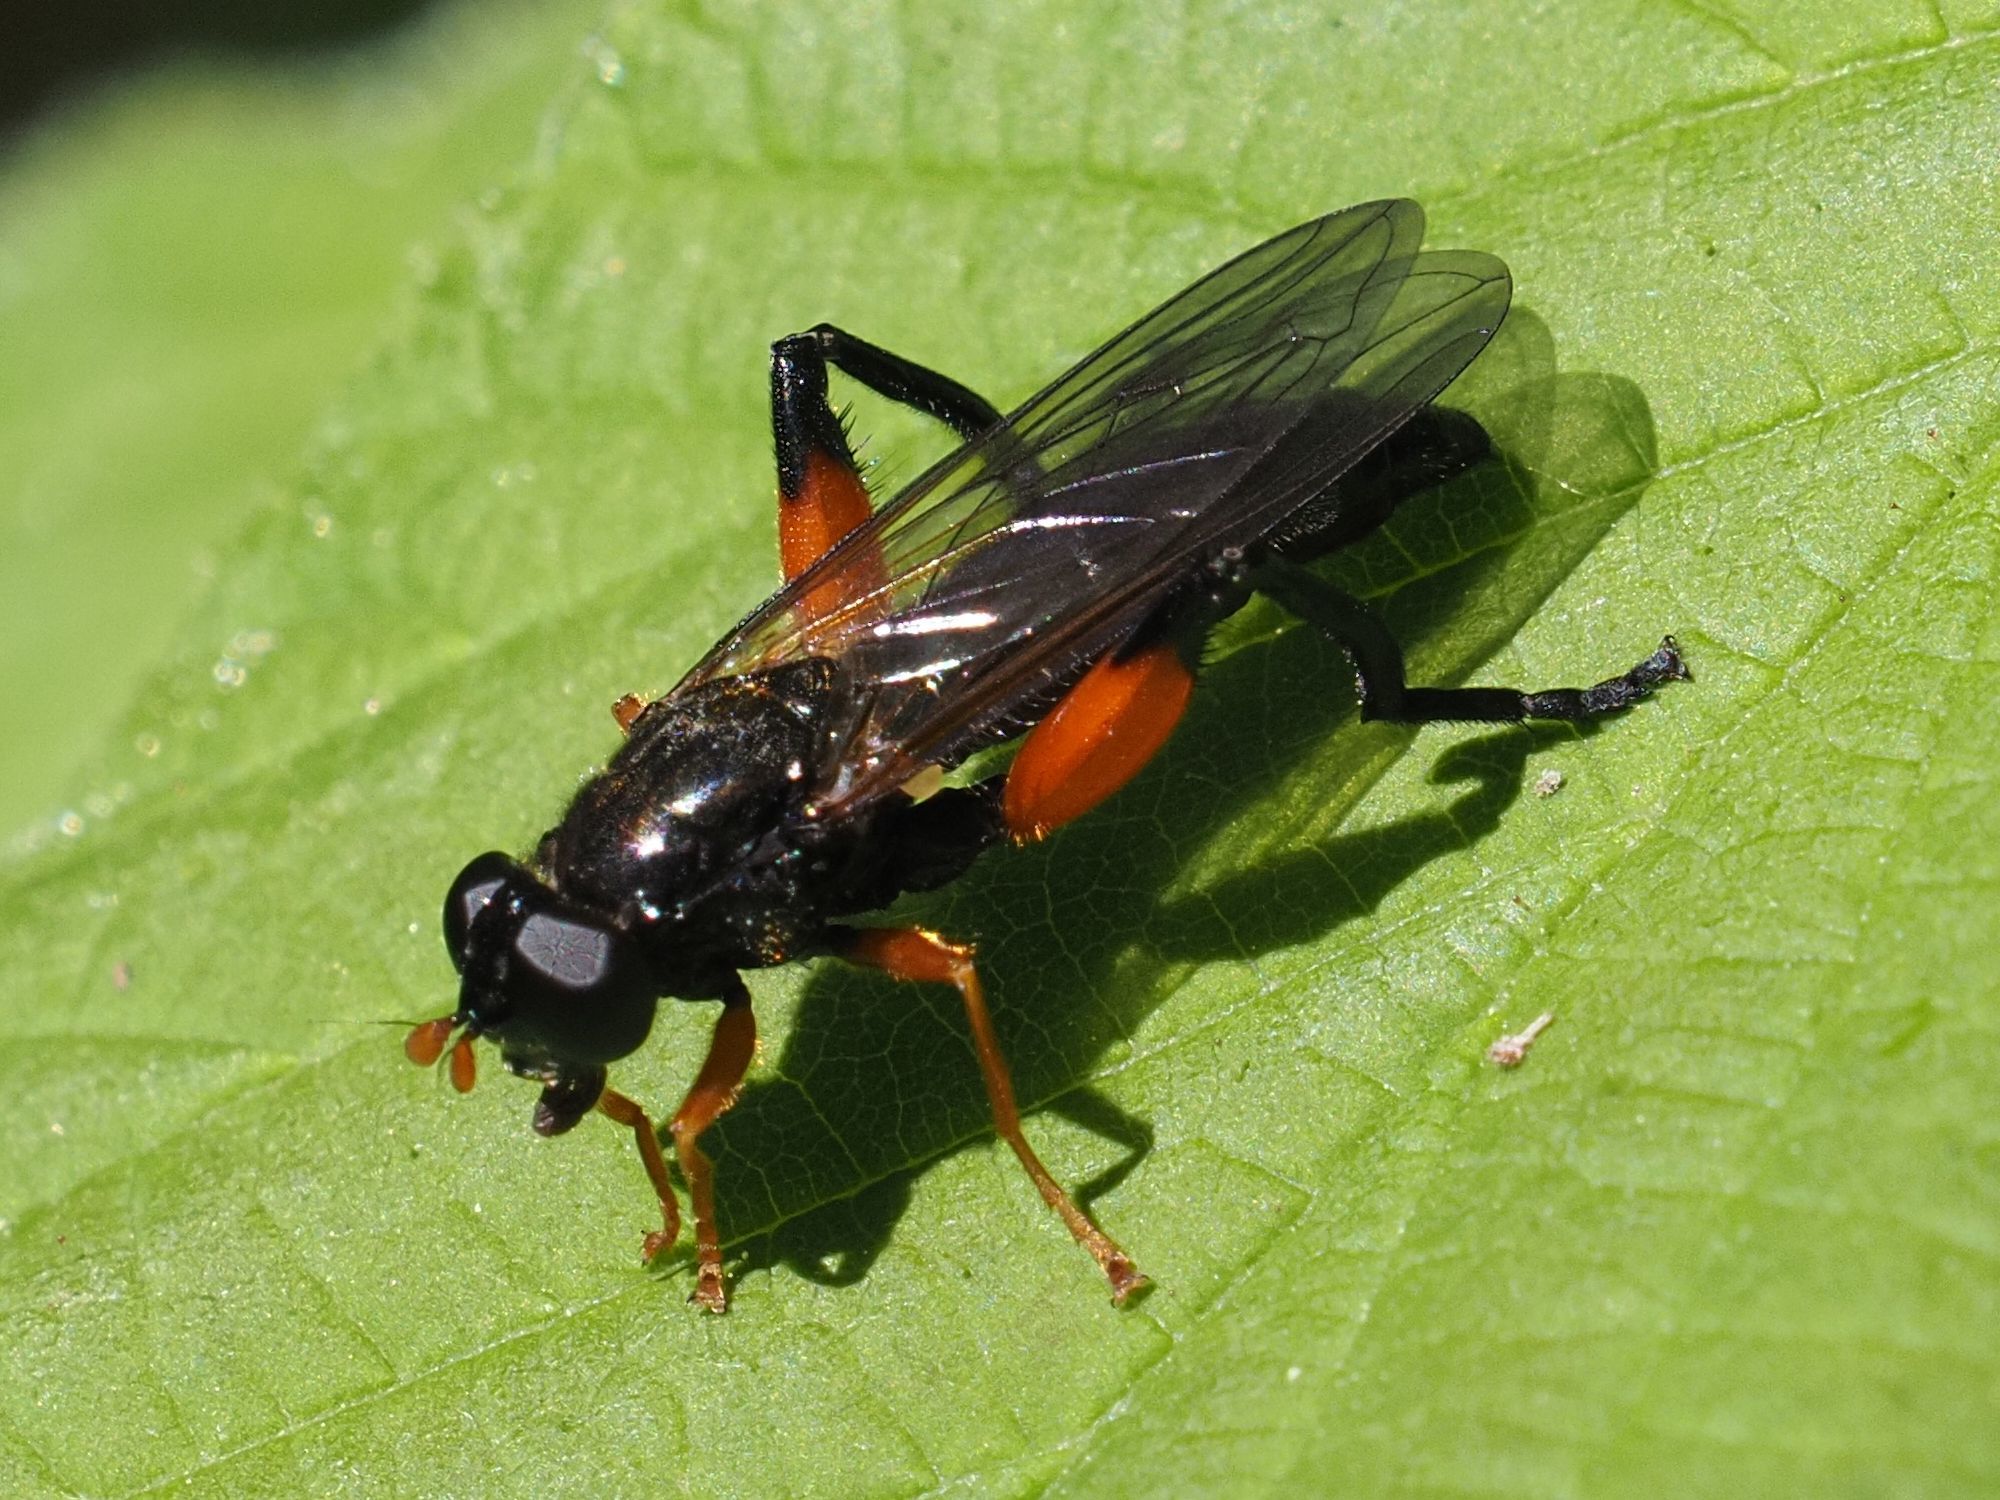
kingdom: Animalia
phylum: Arthropoda
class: Insecta
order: Diptera
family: Syrphidae
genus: Chalcosyrphus
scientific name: Chalcosyrphus femoratus
